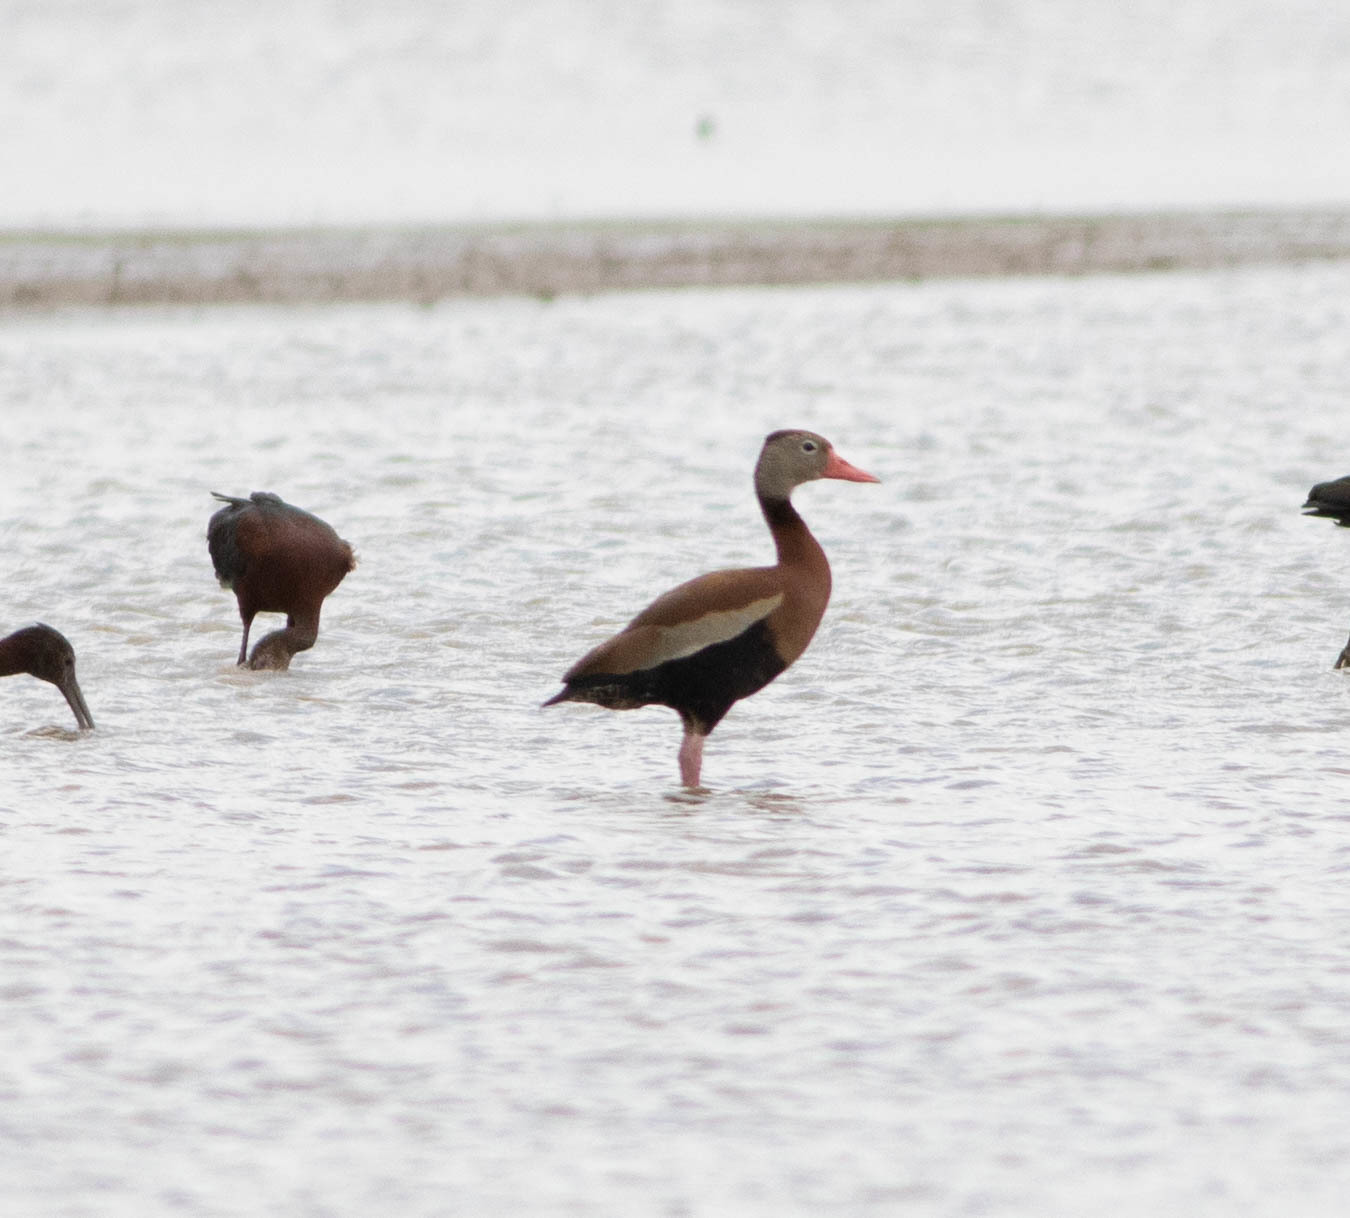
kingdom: Animalia
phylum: Chordata
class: Aves
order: Anseriformes
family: Anatidae
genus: Dendrocygna
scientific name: Dendrocygna autumnalis
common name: Black-bellied whistling duck
